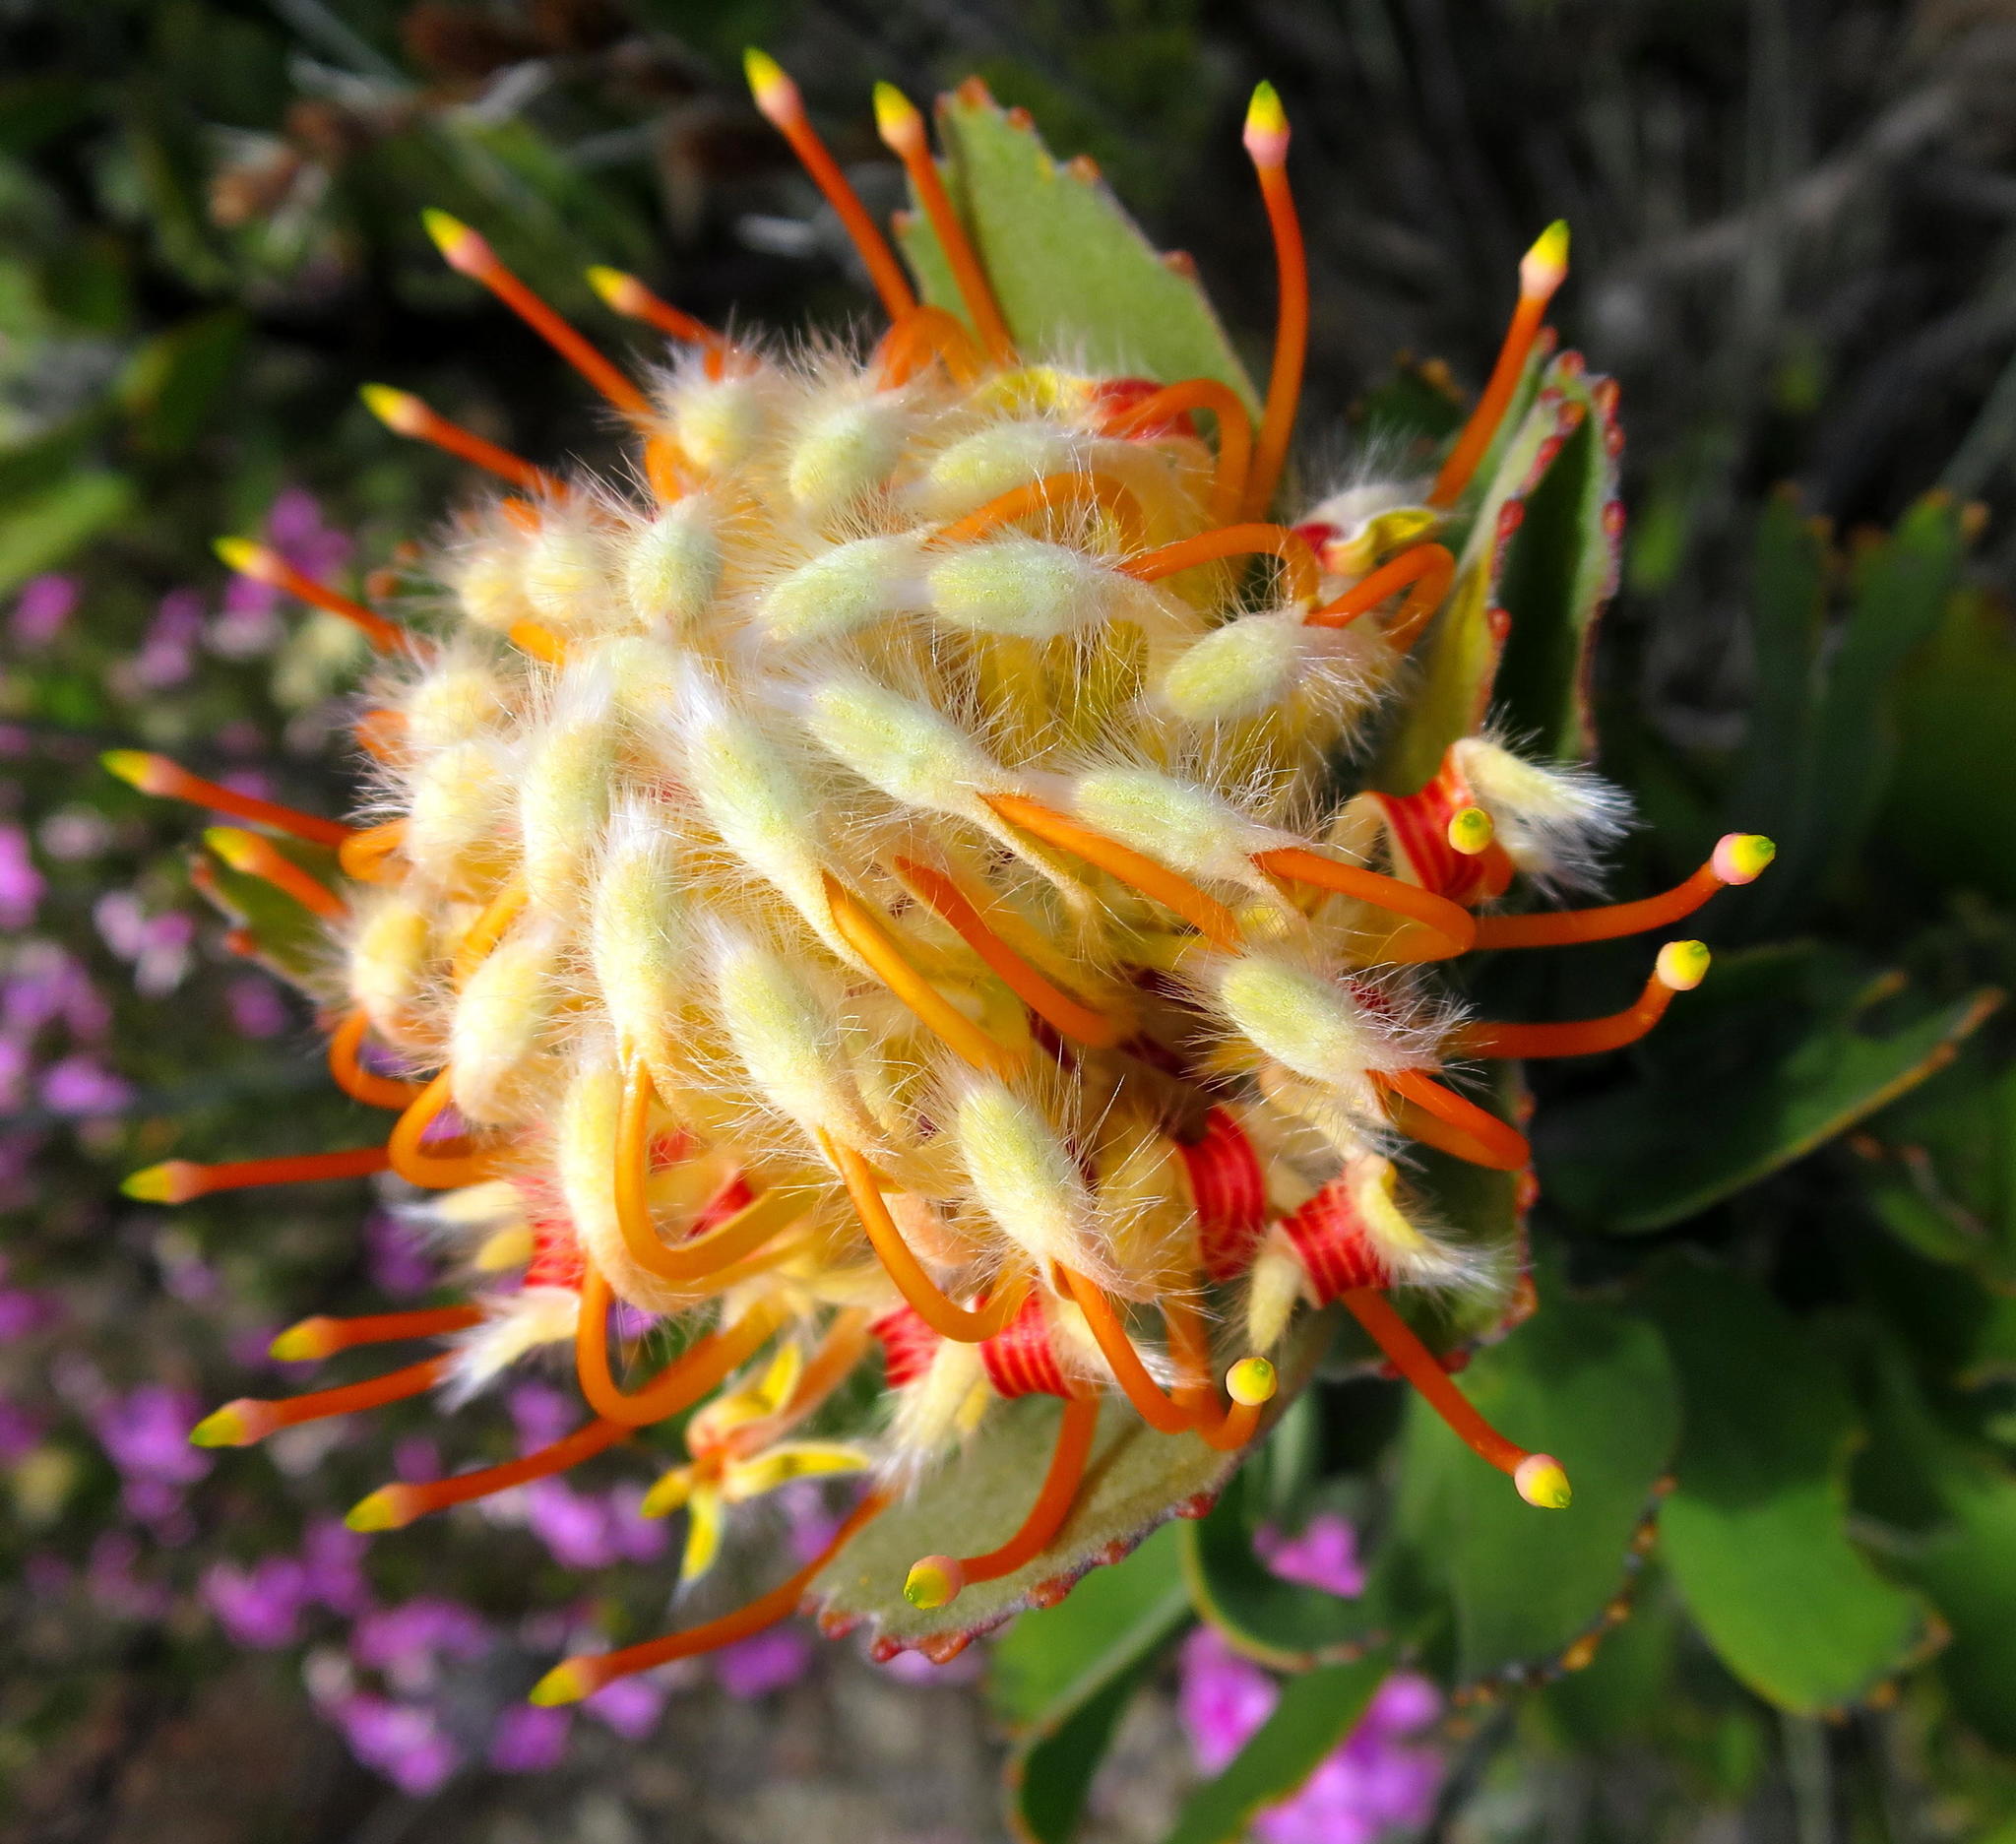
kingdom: Plantae
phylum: Tracheophyta
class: Magnoliopsida
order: Proteales
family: Proteaceae
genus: Leucospermum
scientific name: Leucospermum pluridens
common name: Robinson pincushion
